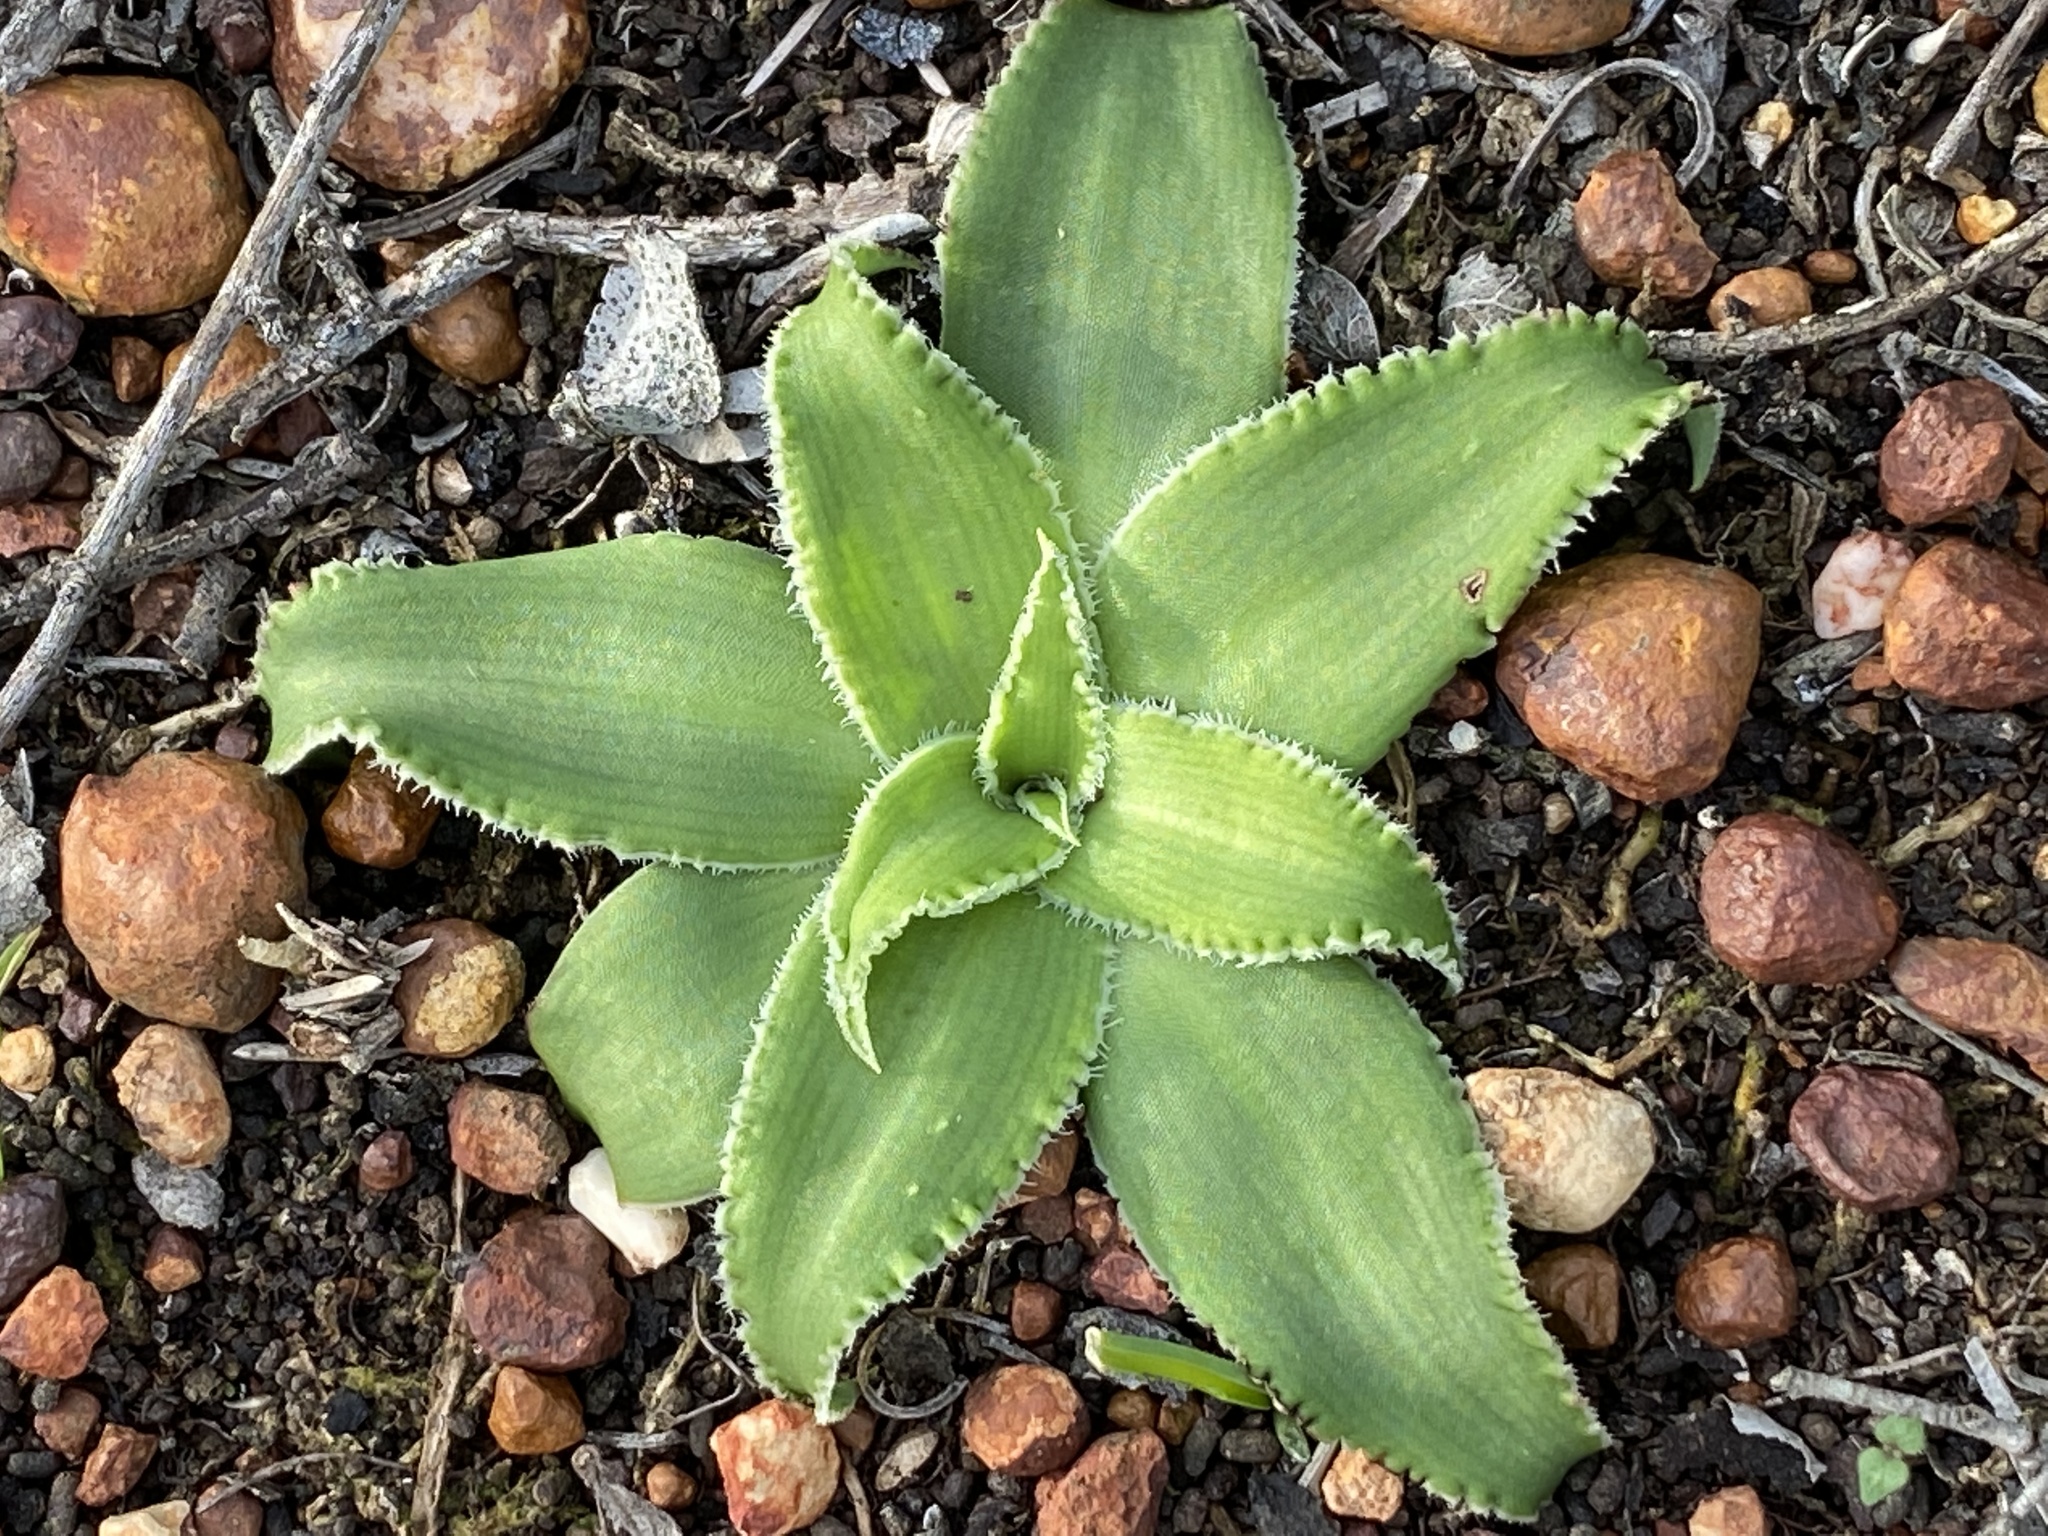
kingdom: Plantae
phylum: Tracheophyta
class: Liliopsida
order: Asparagales
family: Asparagaceae
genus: Chlorophytum
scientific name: Chlorophytum crispum
